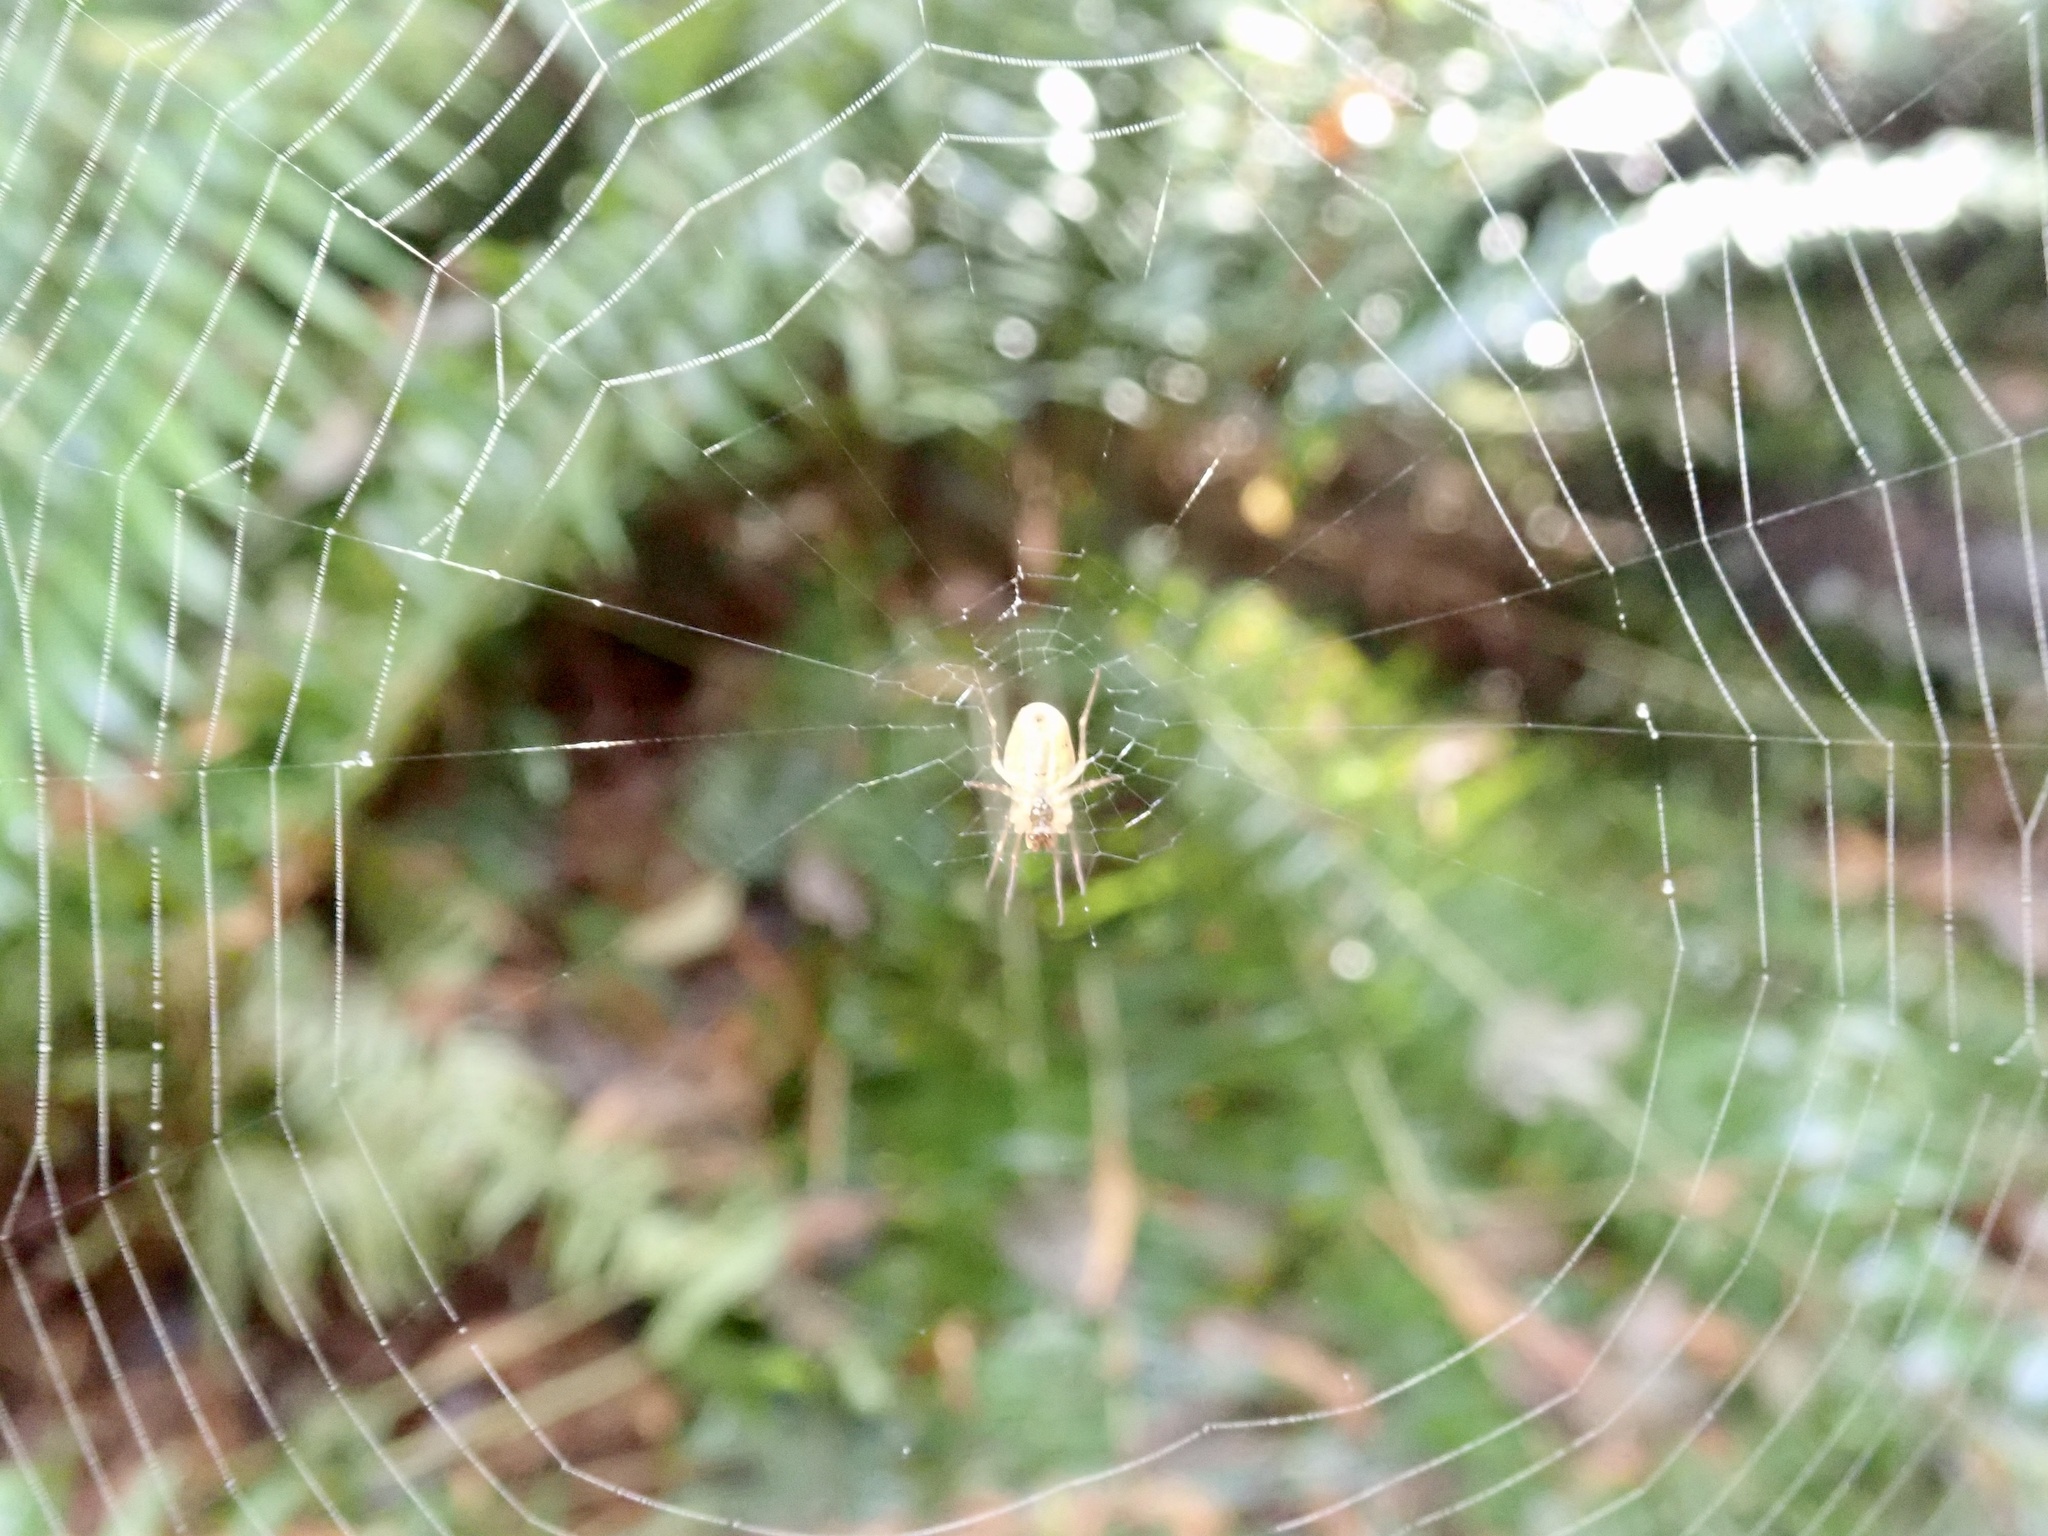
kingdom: Animalia
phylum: Arthropoda
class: Arachnida
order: Araneae
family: Tetragnathidae
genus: Metellina
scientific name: Metellina segmentata
